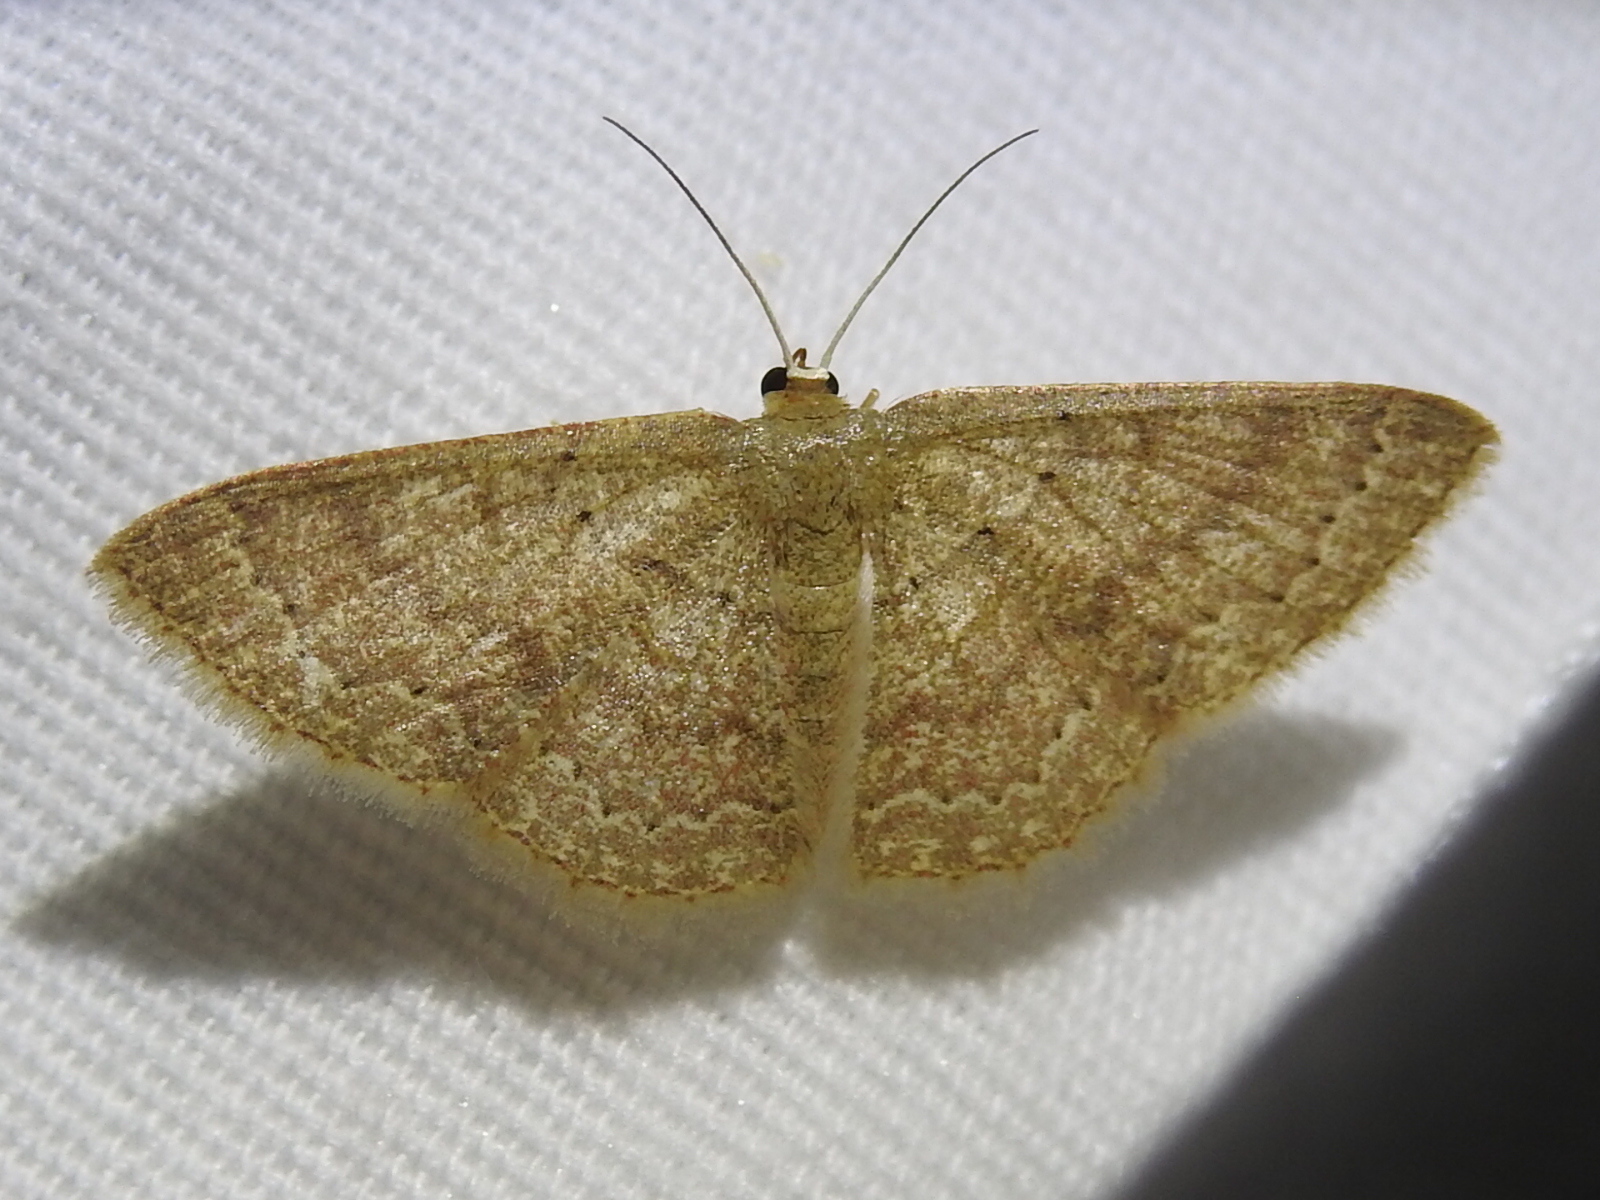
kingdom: Animalia
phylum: Arthropoda
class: Insecta
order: Lepidoptera
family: Geometridae
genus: Pleuroprucha
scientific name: Pleuroprucha insulsaria
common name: Common tan wave
